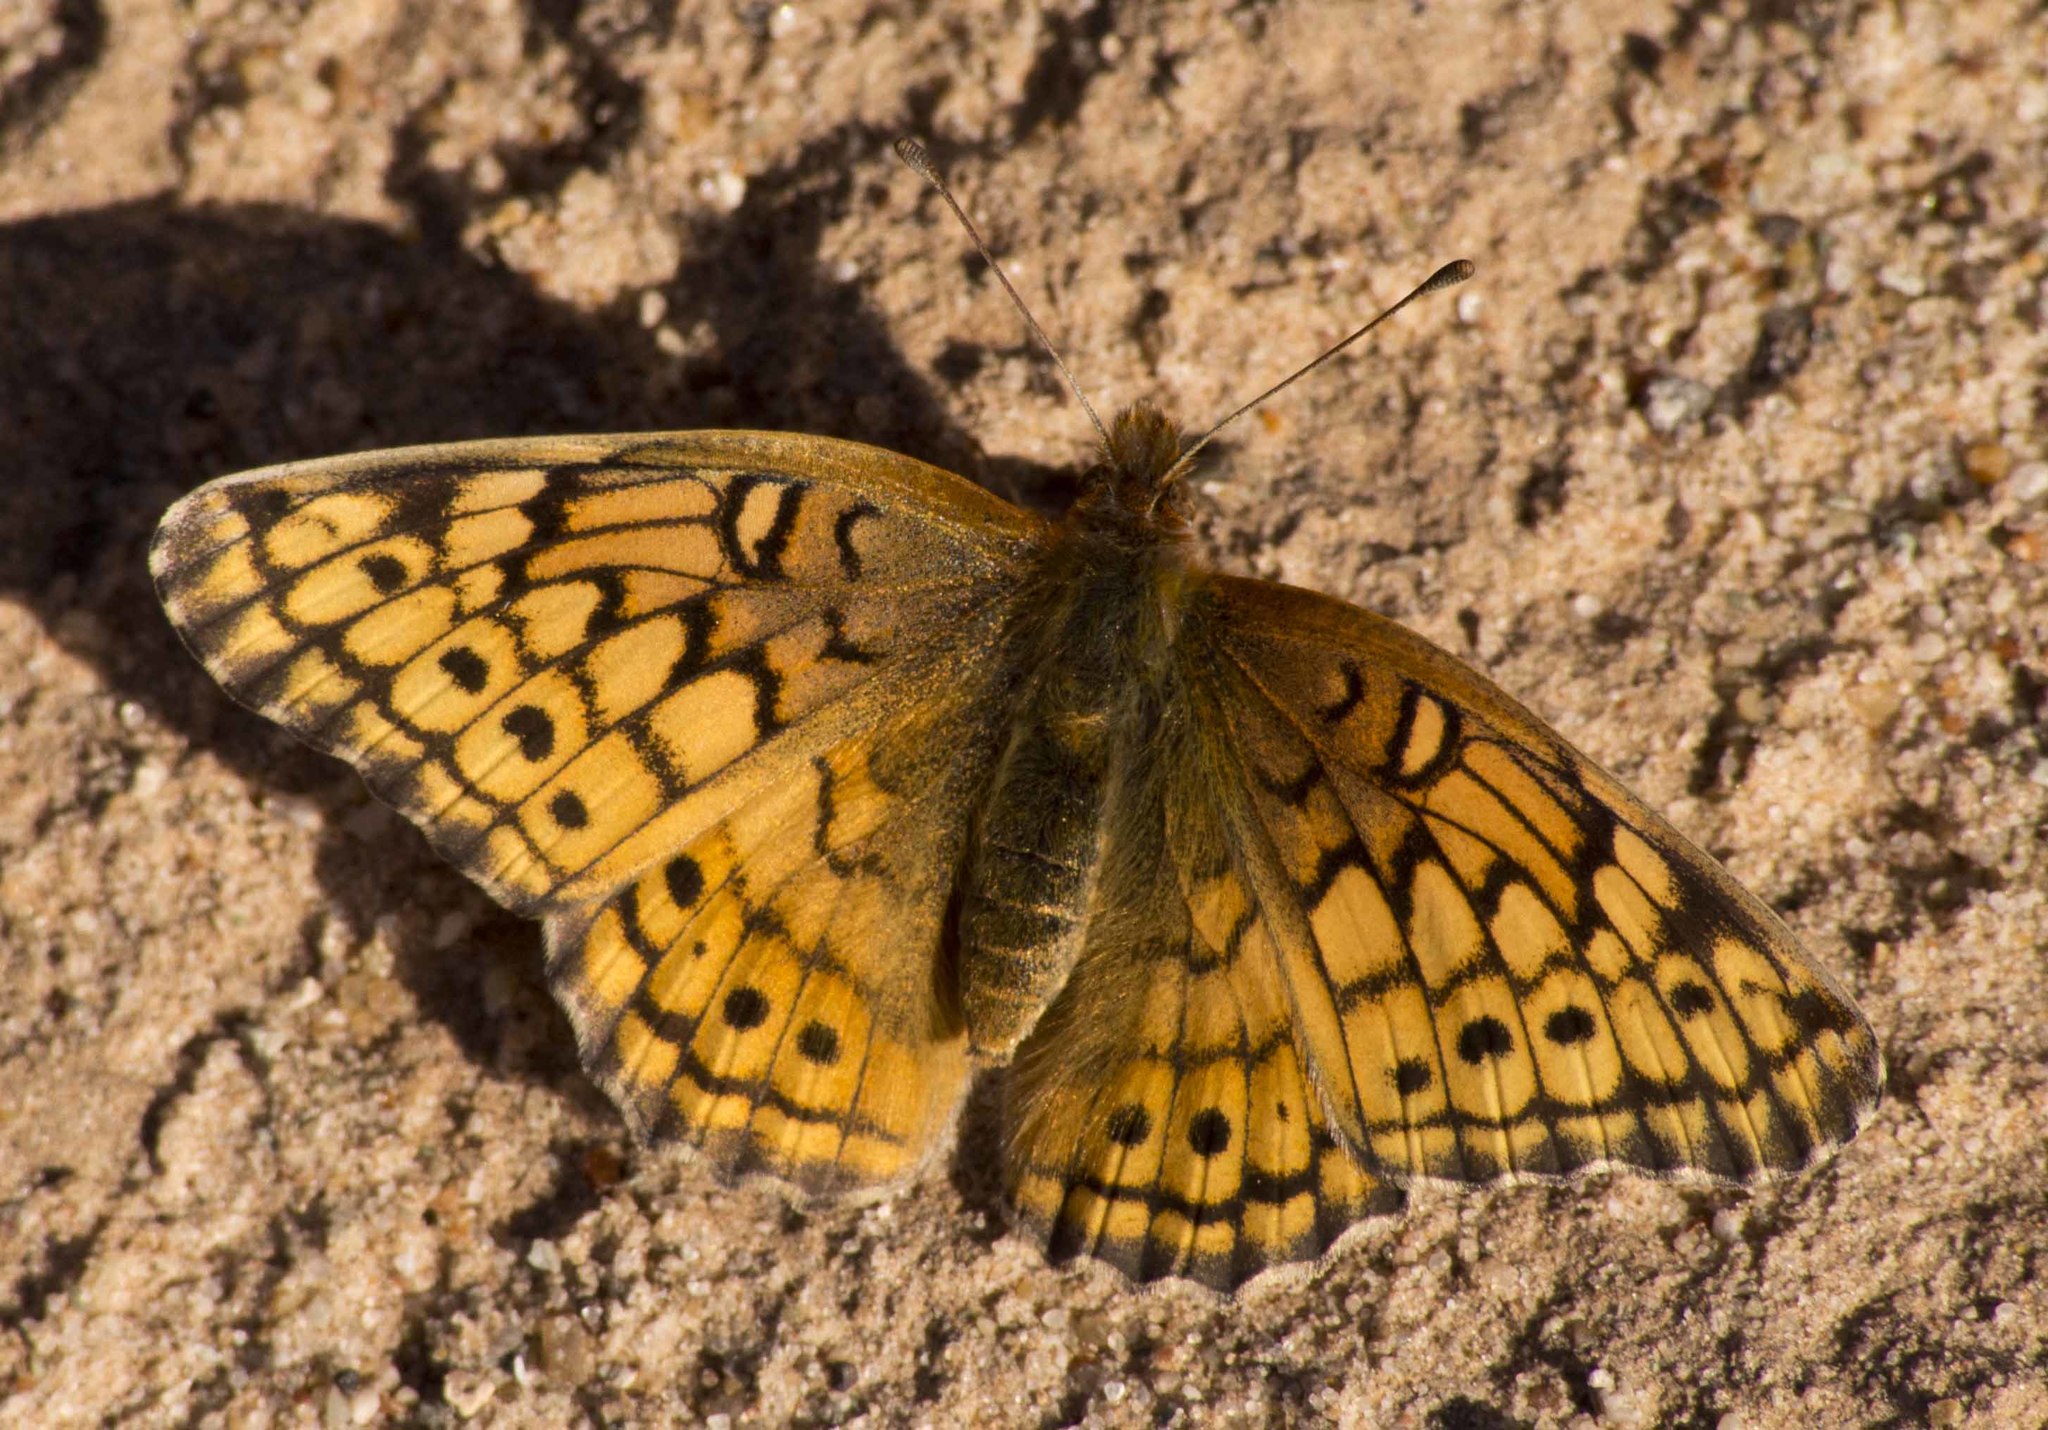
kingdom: Animalia
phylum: Arthropoda
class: Insecta
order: Lepidoptera
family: Nymphalidae
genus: Euptoieta
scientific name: Euptoieta claudia
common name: Variegated fritillary
